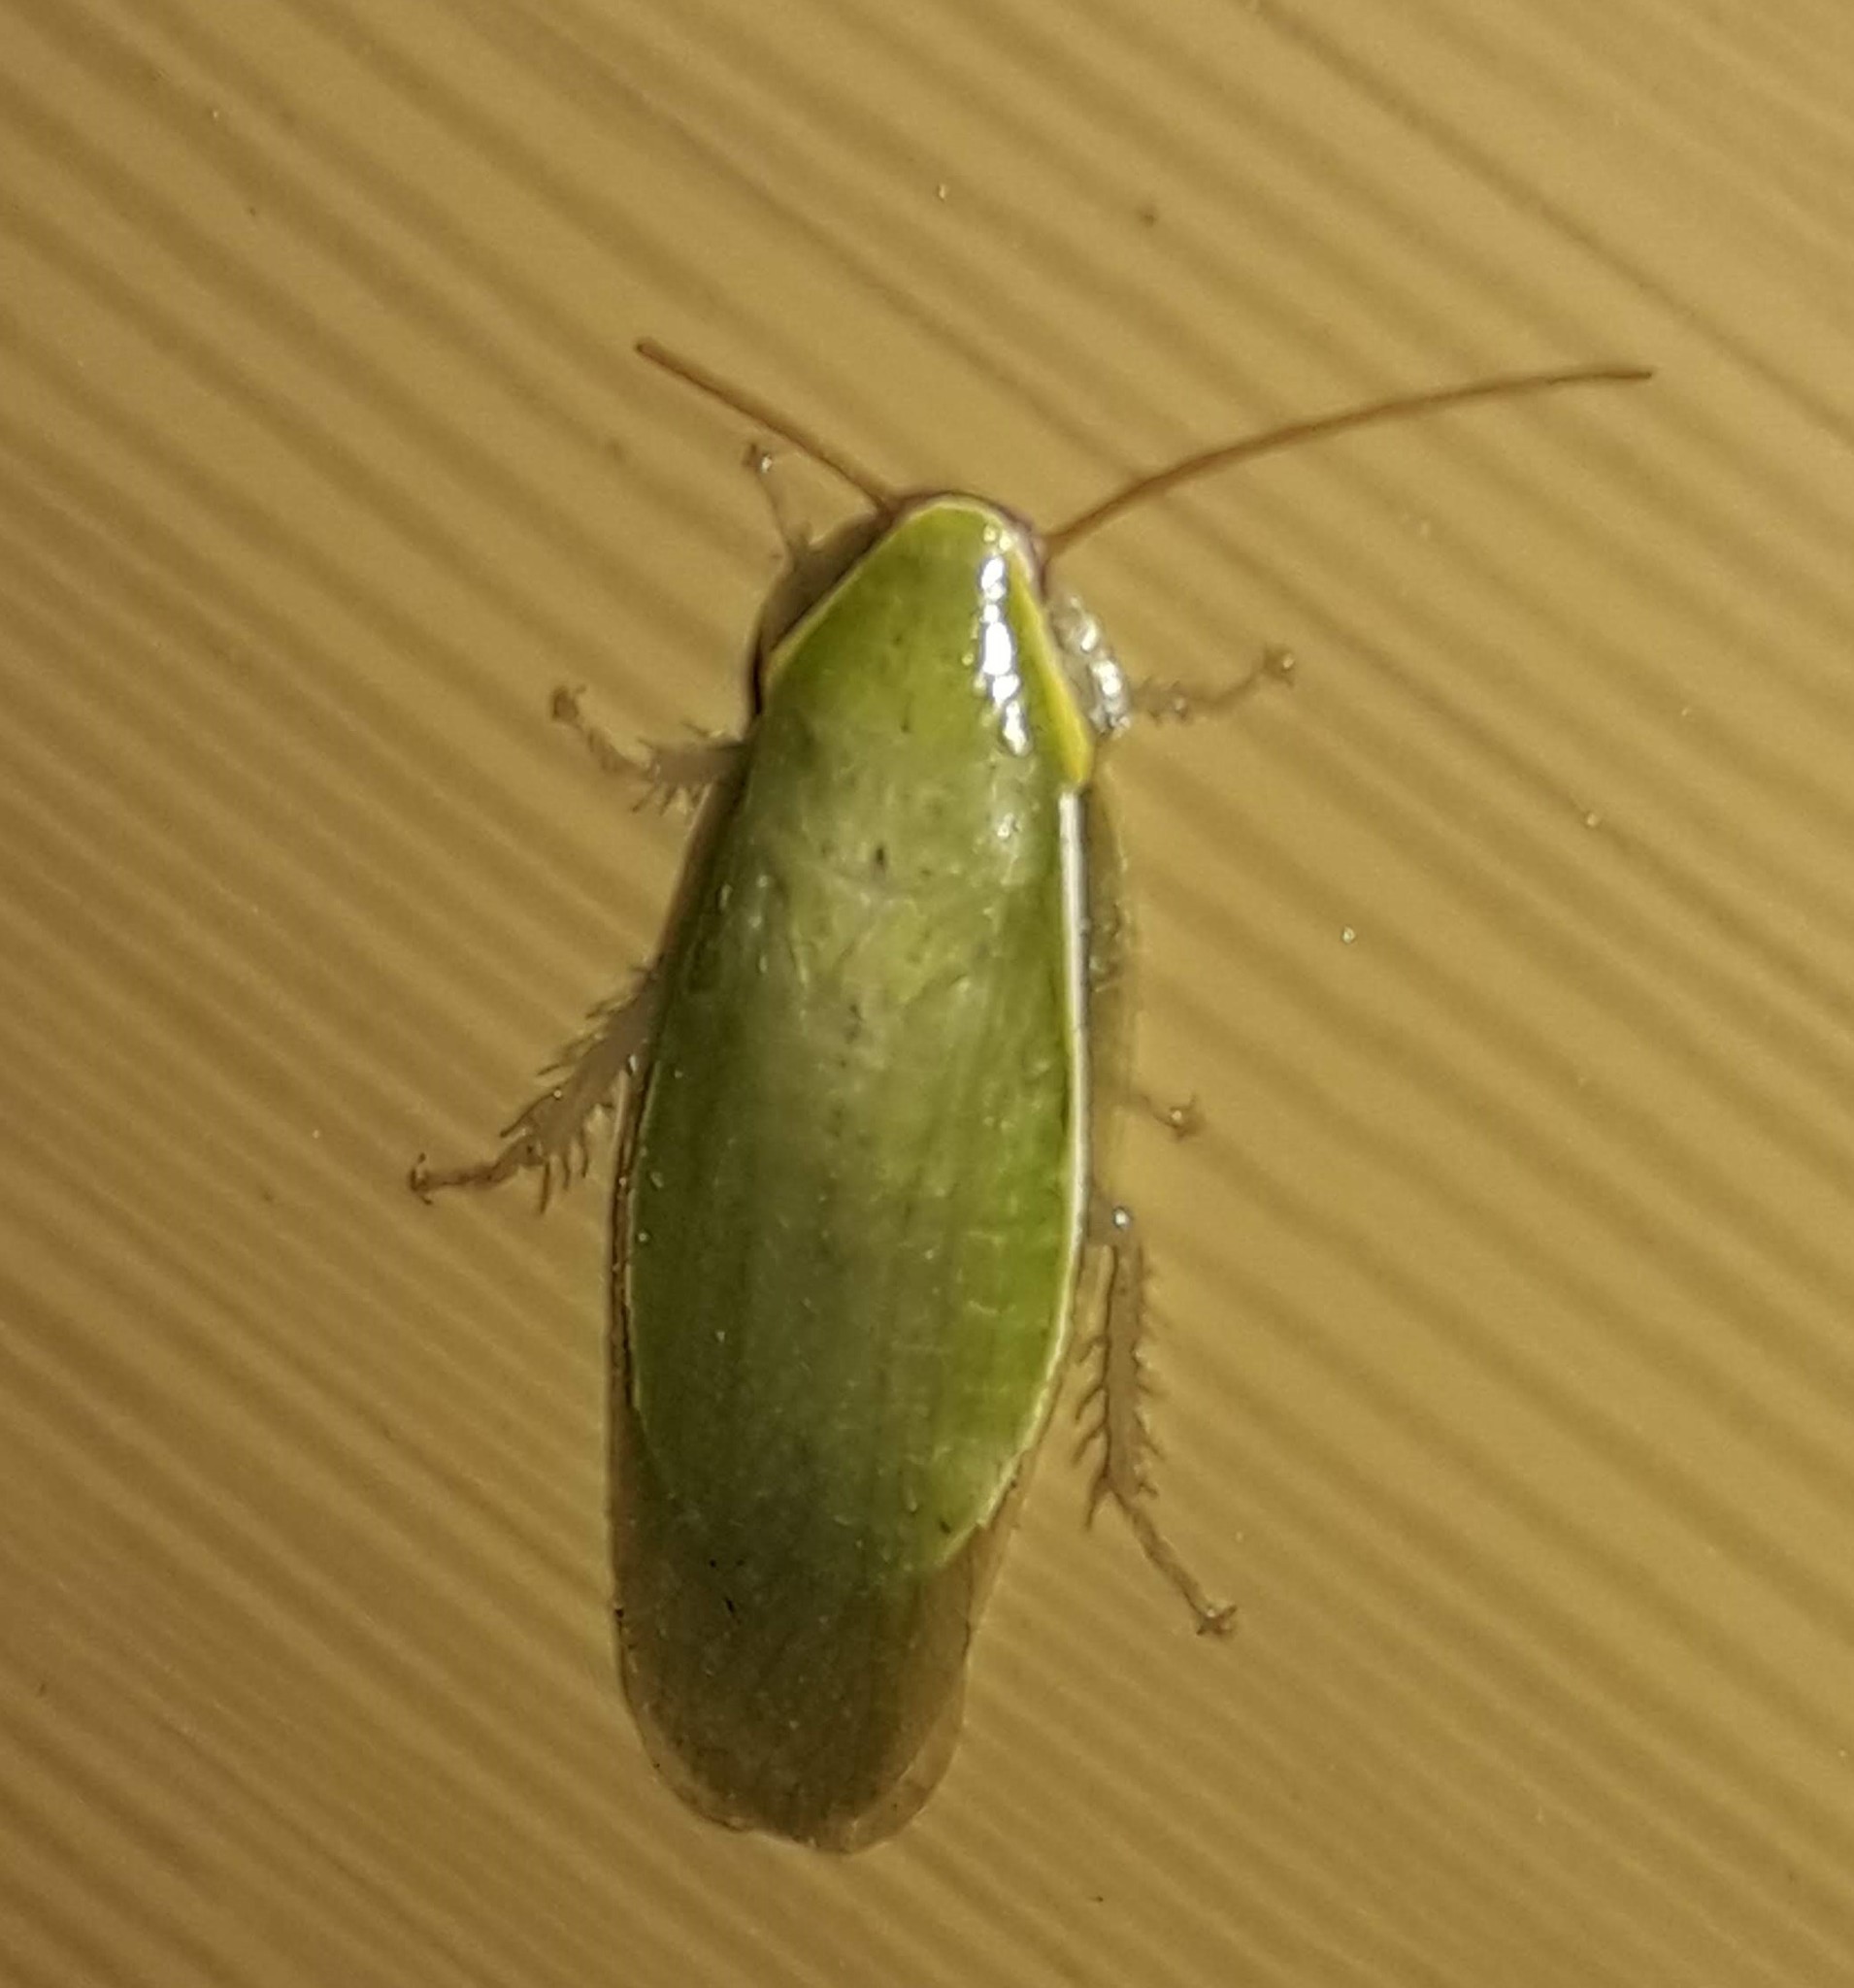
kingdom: Animalia
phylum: Arthropoda
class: Insecta
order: Blattodea
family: Blaberidae
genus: Panchlora
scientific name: Panchlora nivea
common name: Cuban cockroach
